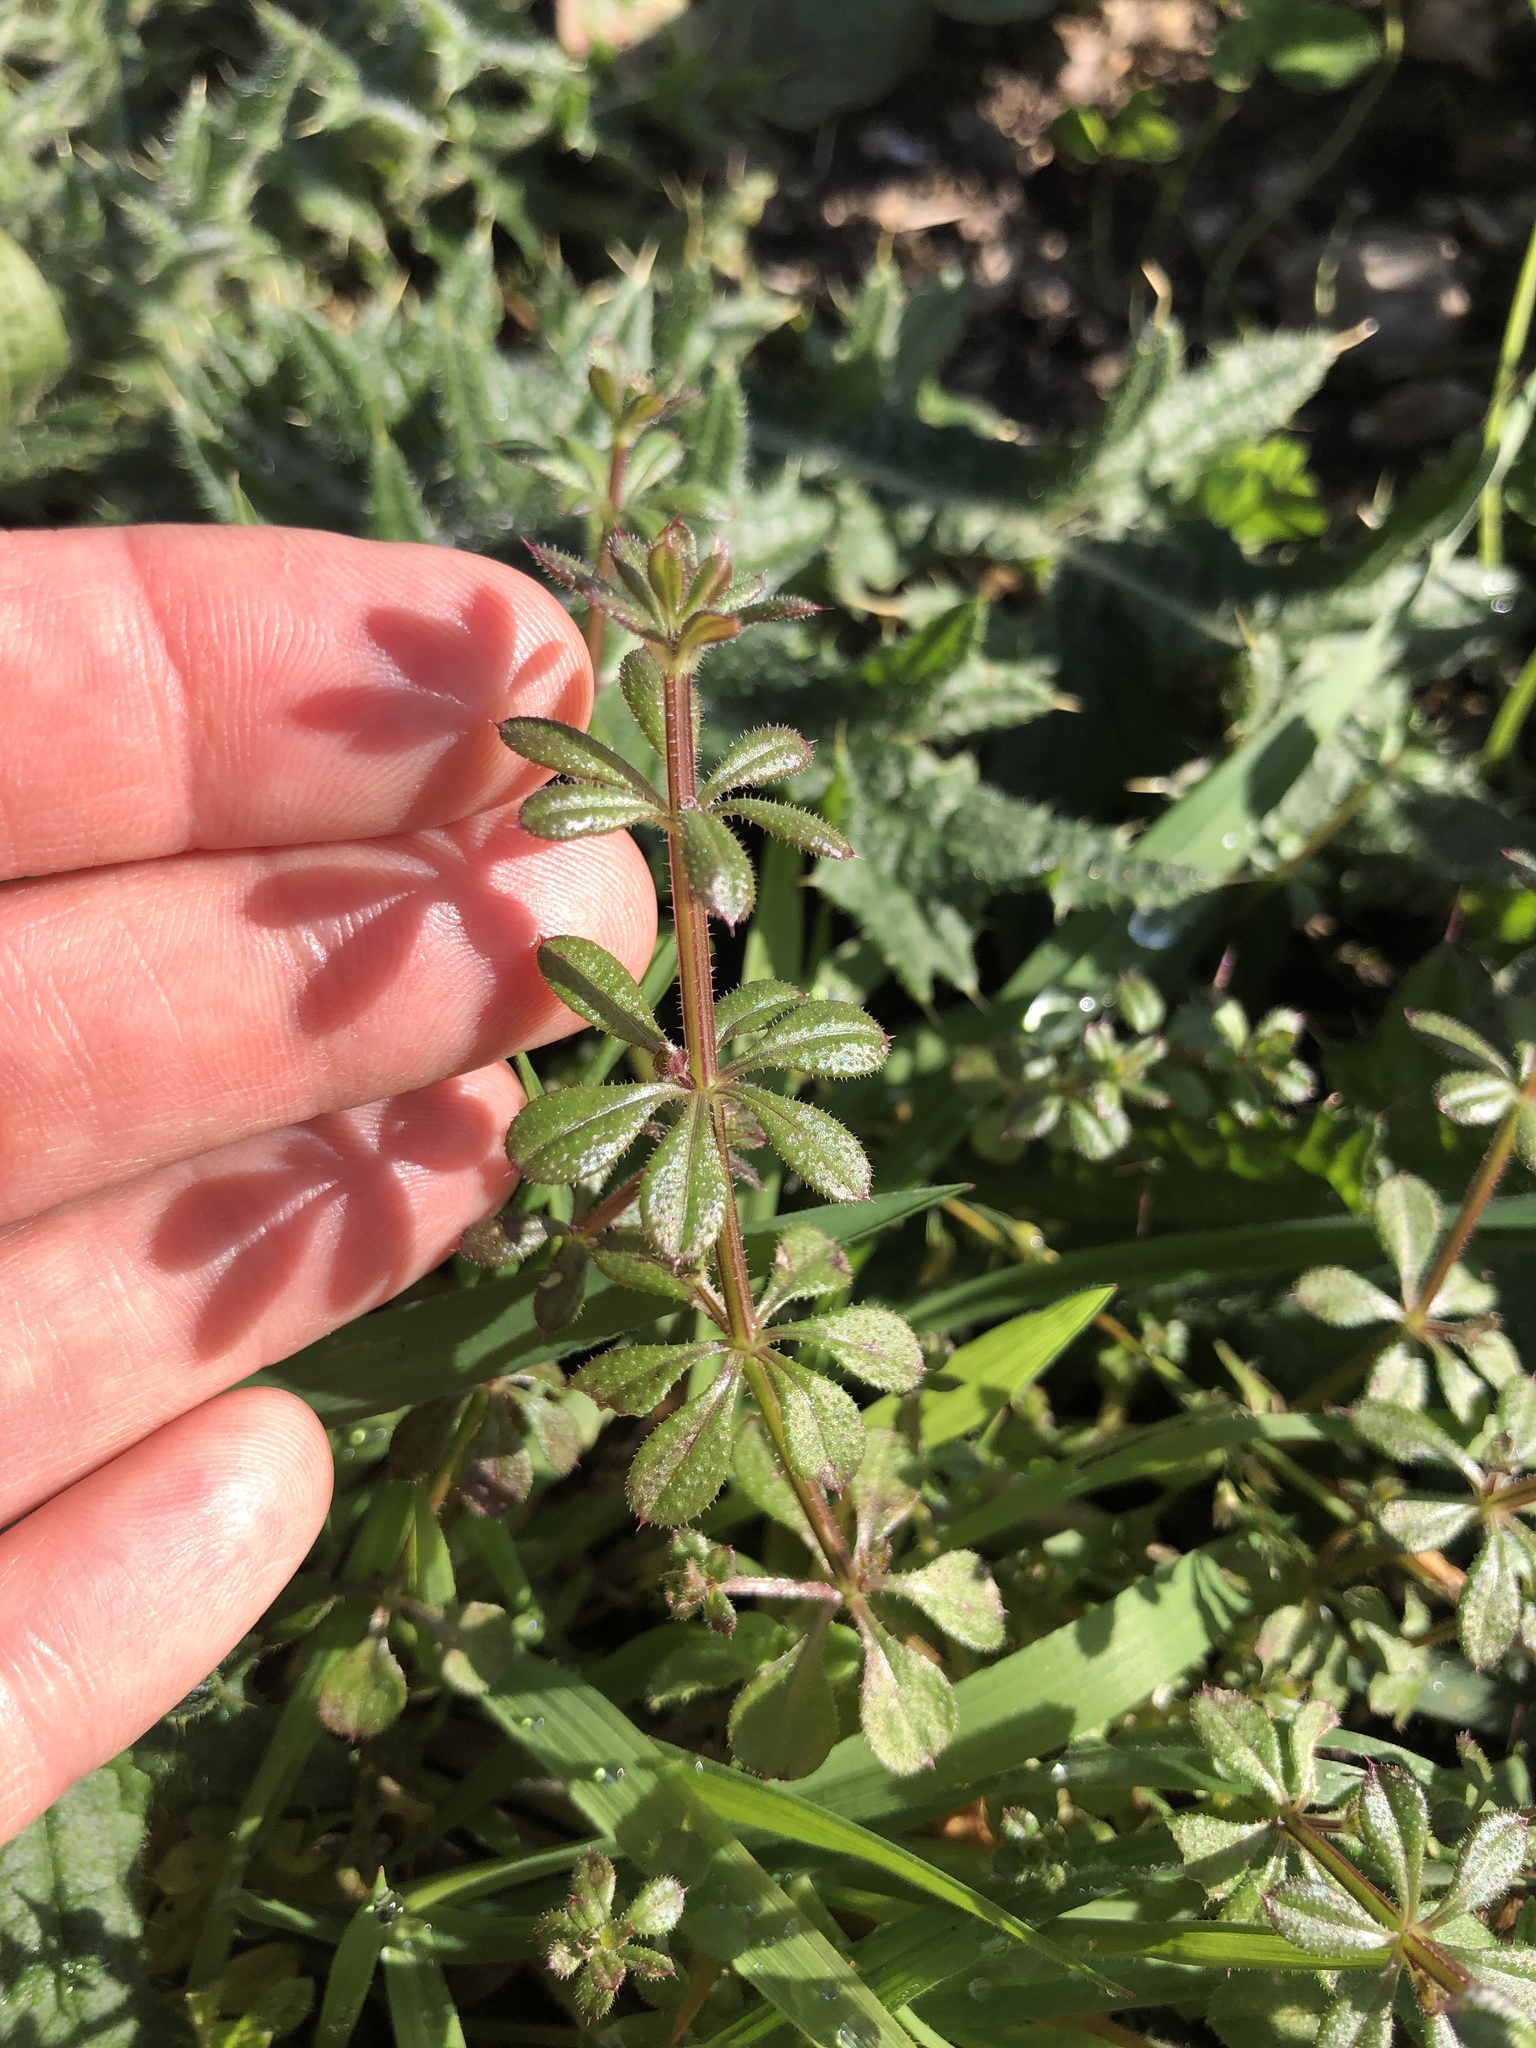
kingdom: Plantae
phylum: Tracheophyta
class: Magnoliopsida
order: Gentianales
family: Rubiaceae
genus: Galium
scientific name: Galium aparine
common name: Cleavers
